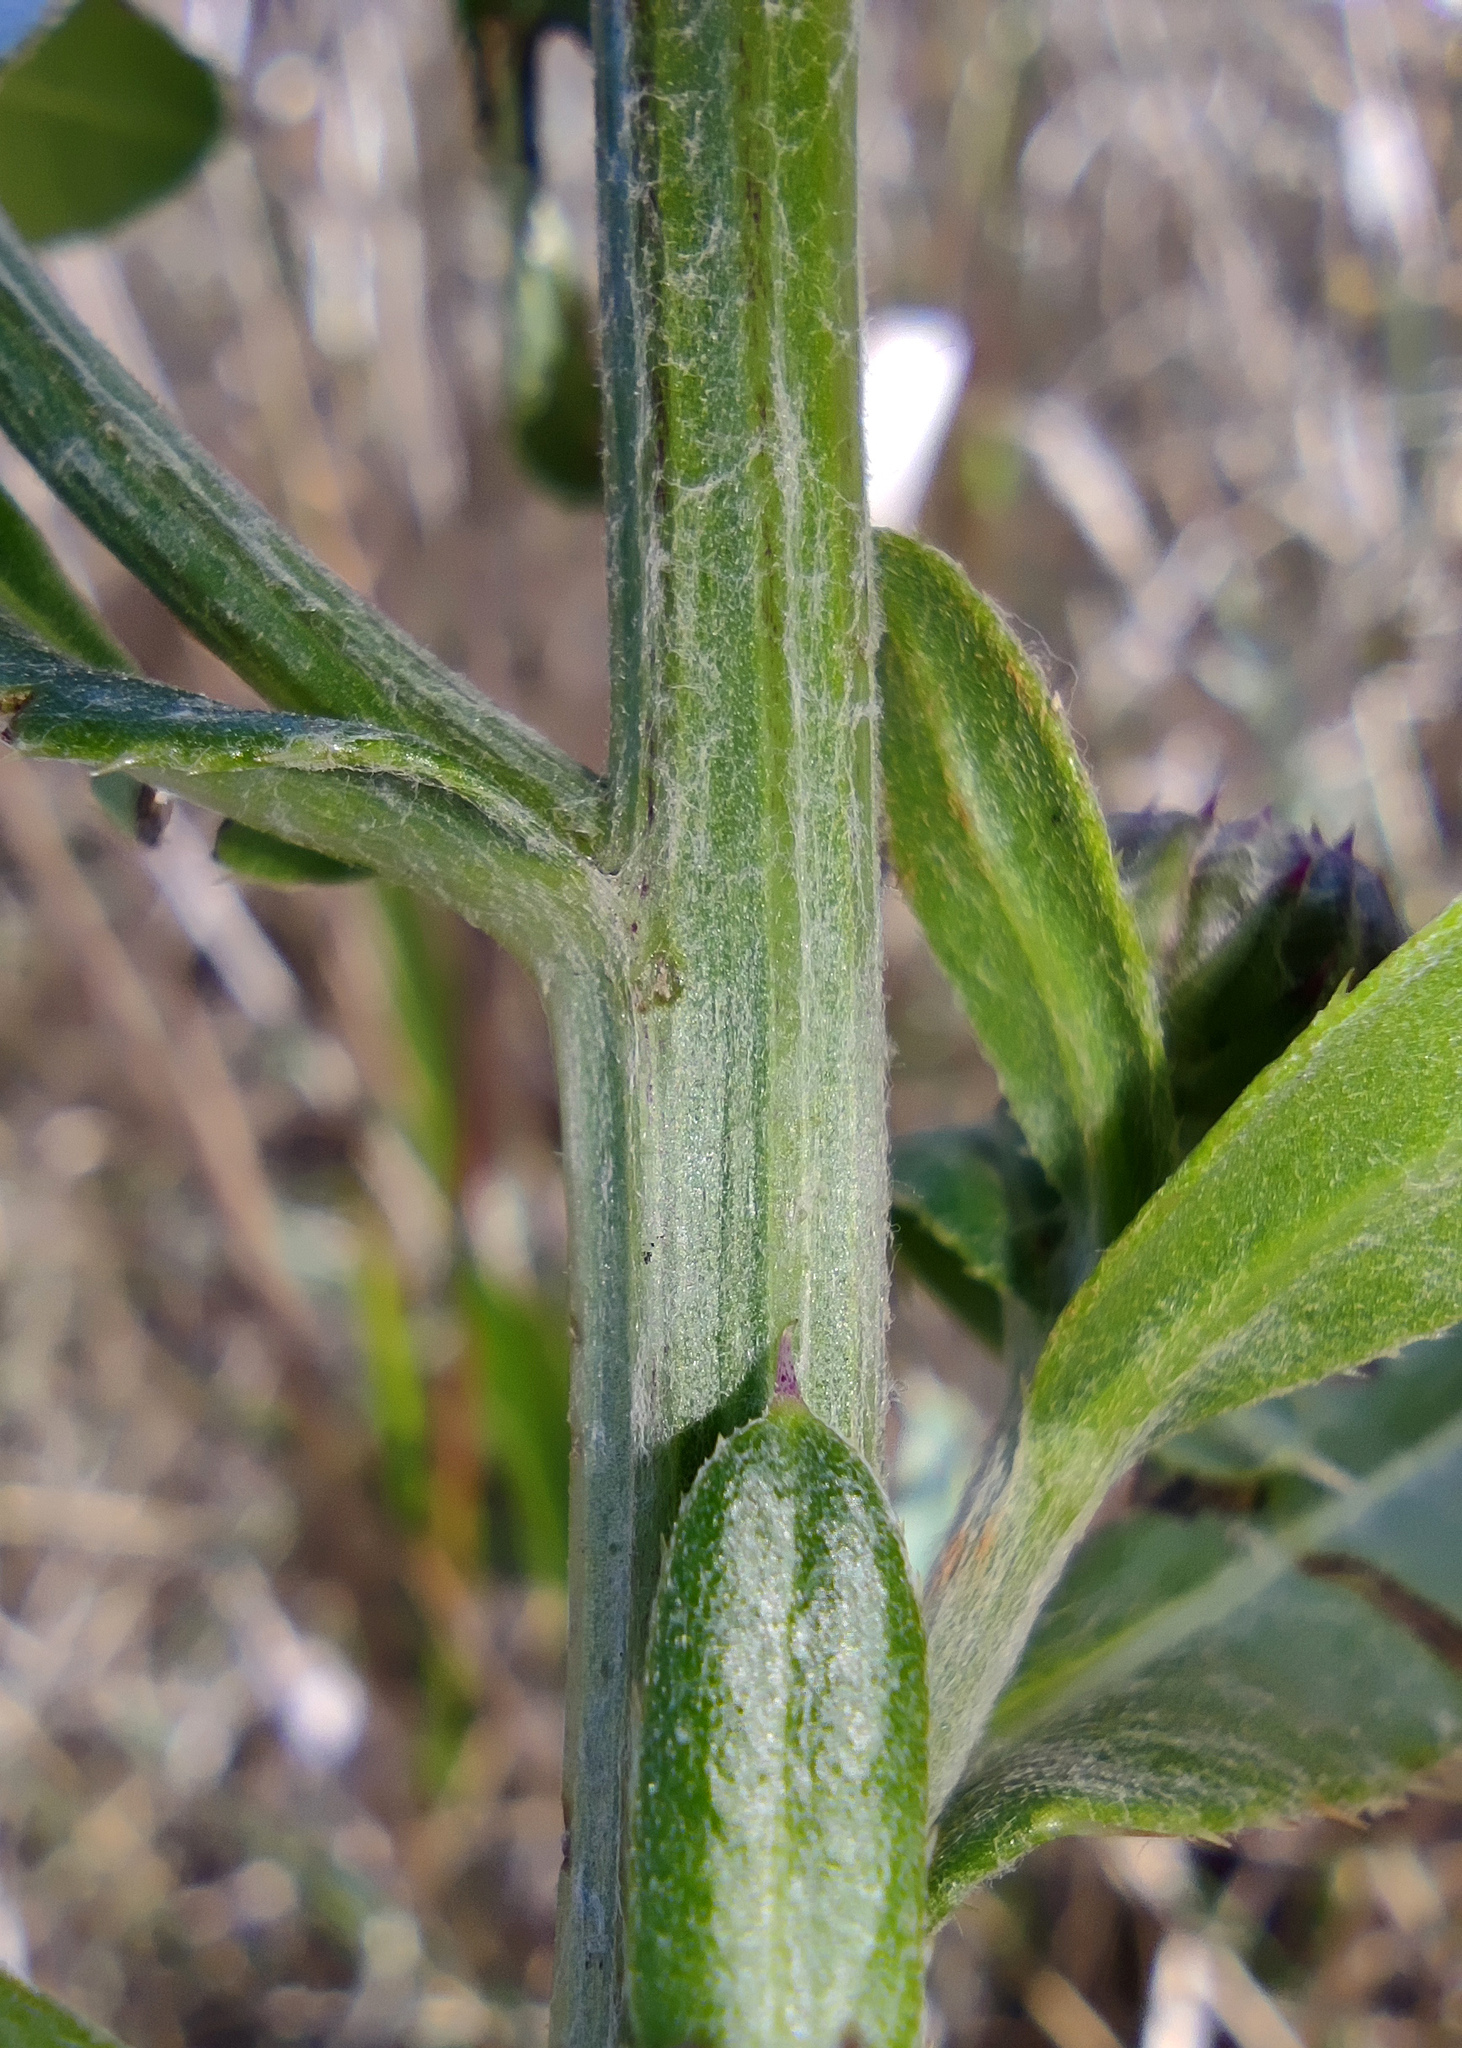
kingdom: Plantae
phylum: Tracheophyta
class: Magnoliopsida
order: Asterales
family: Asteraceae
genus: Cirsium
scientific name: Cirsium arvense
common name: Creeping thistle
